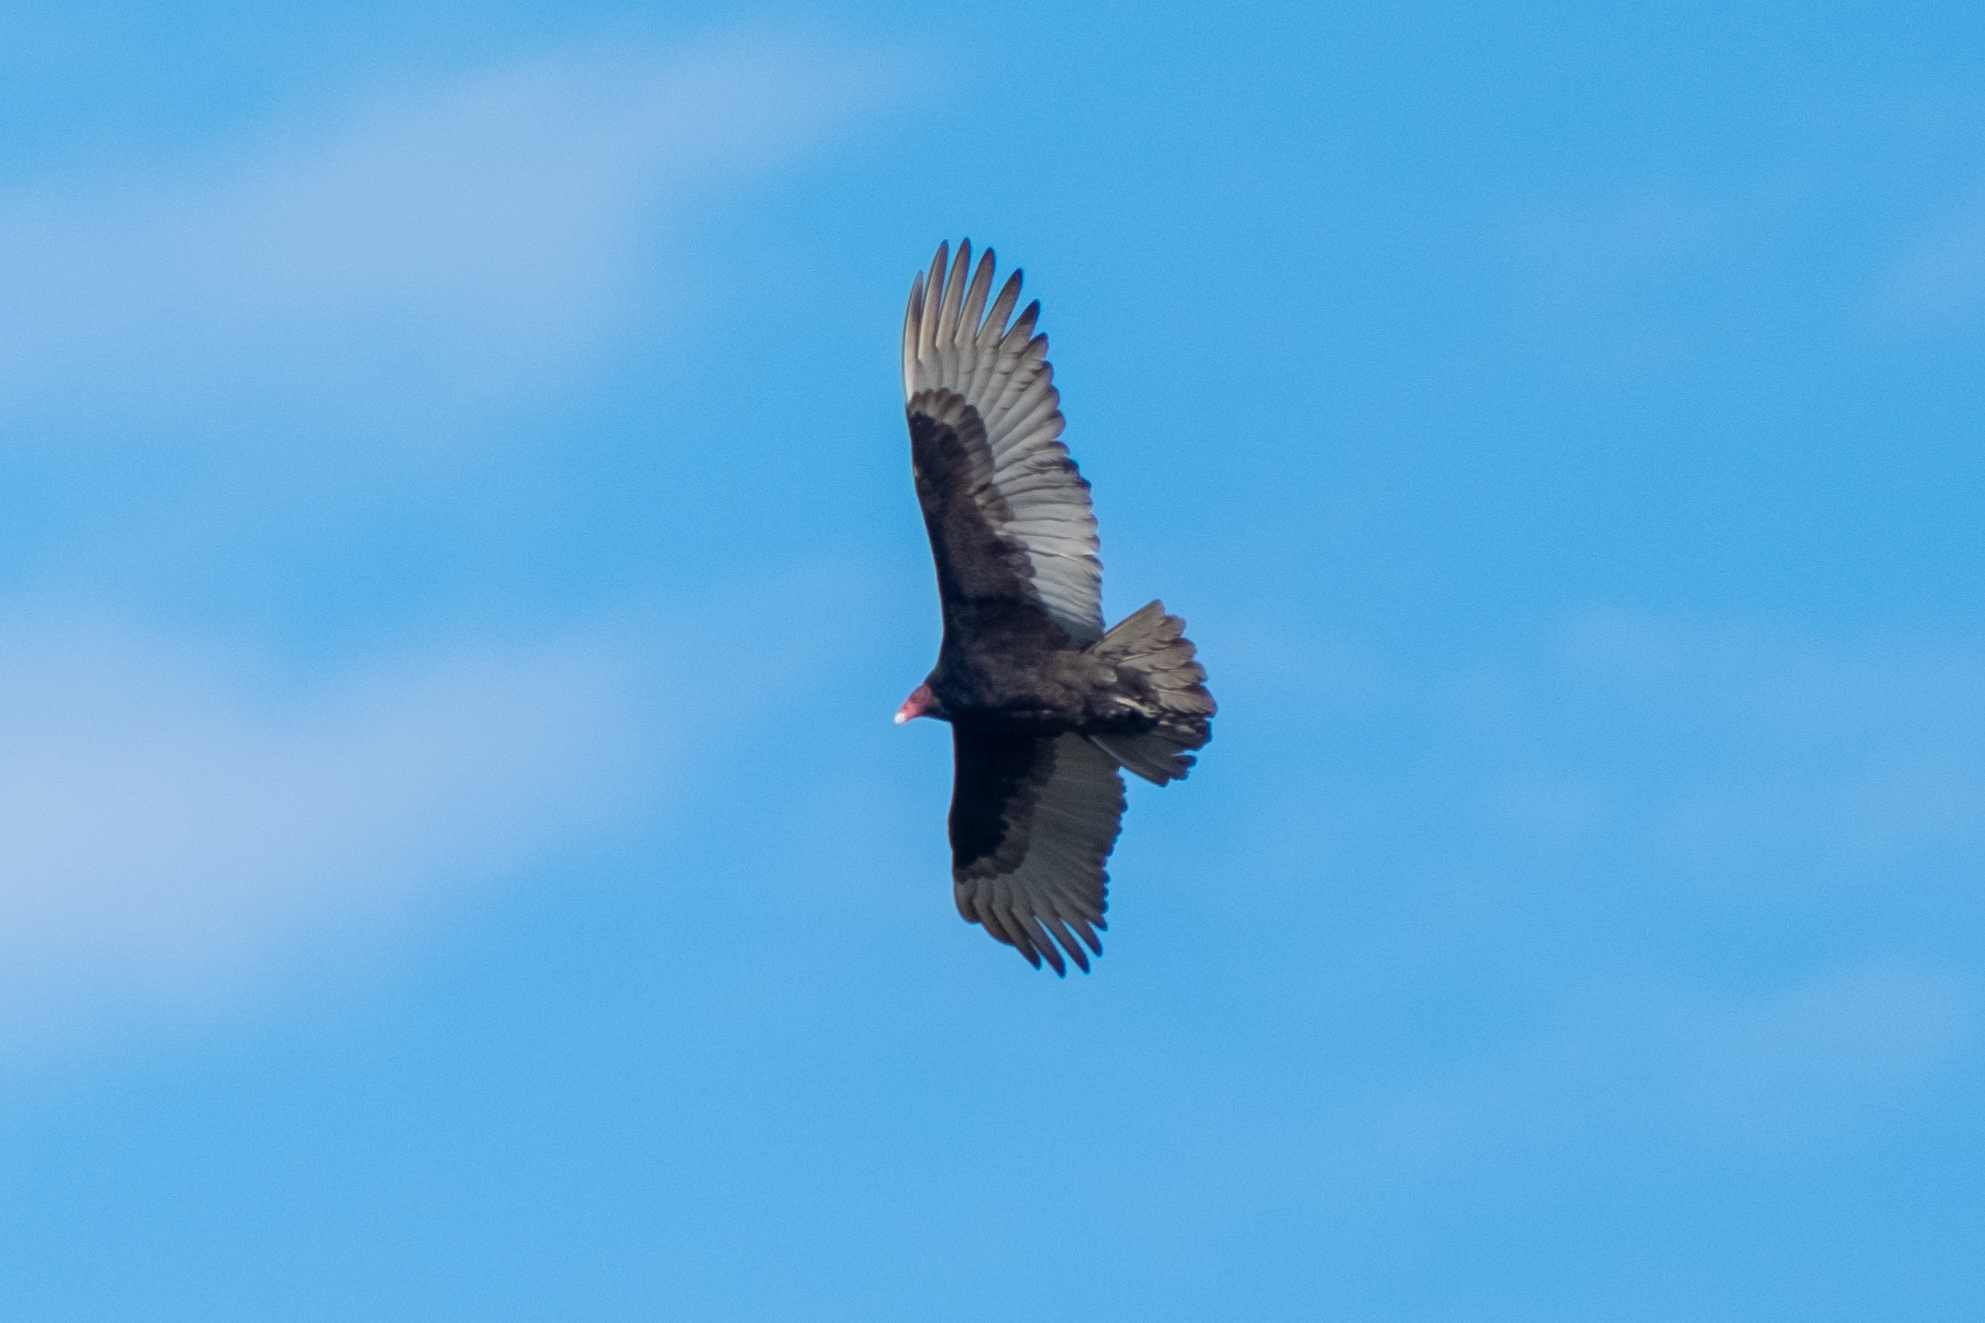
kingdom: Animalia
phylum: Chordata
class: Aves
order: Accipitriformes
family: Cathartidae
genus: Cathartes
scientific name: Cathartes aura
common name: Turkey vulture
